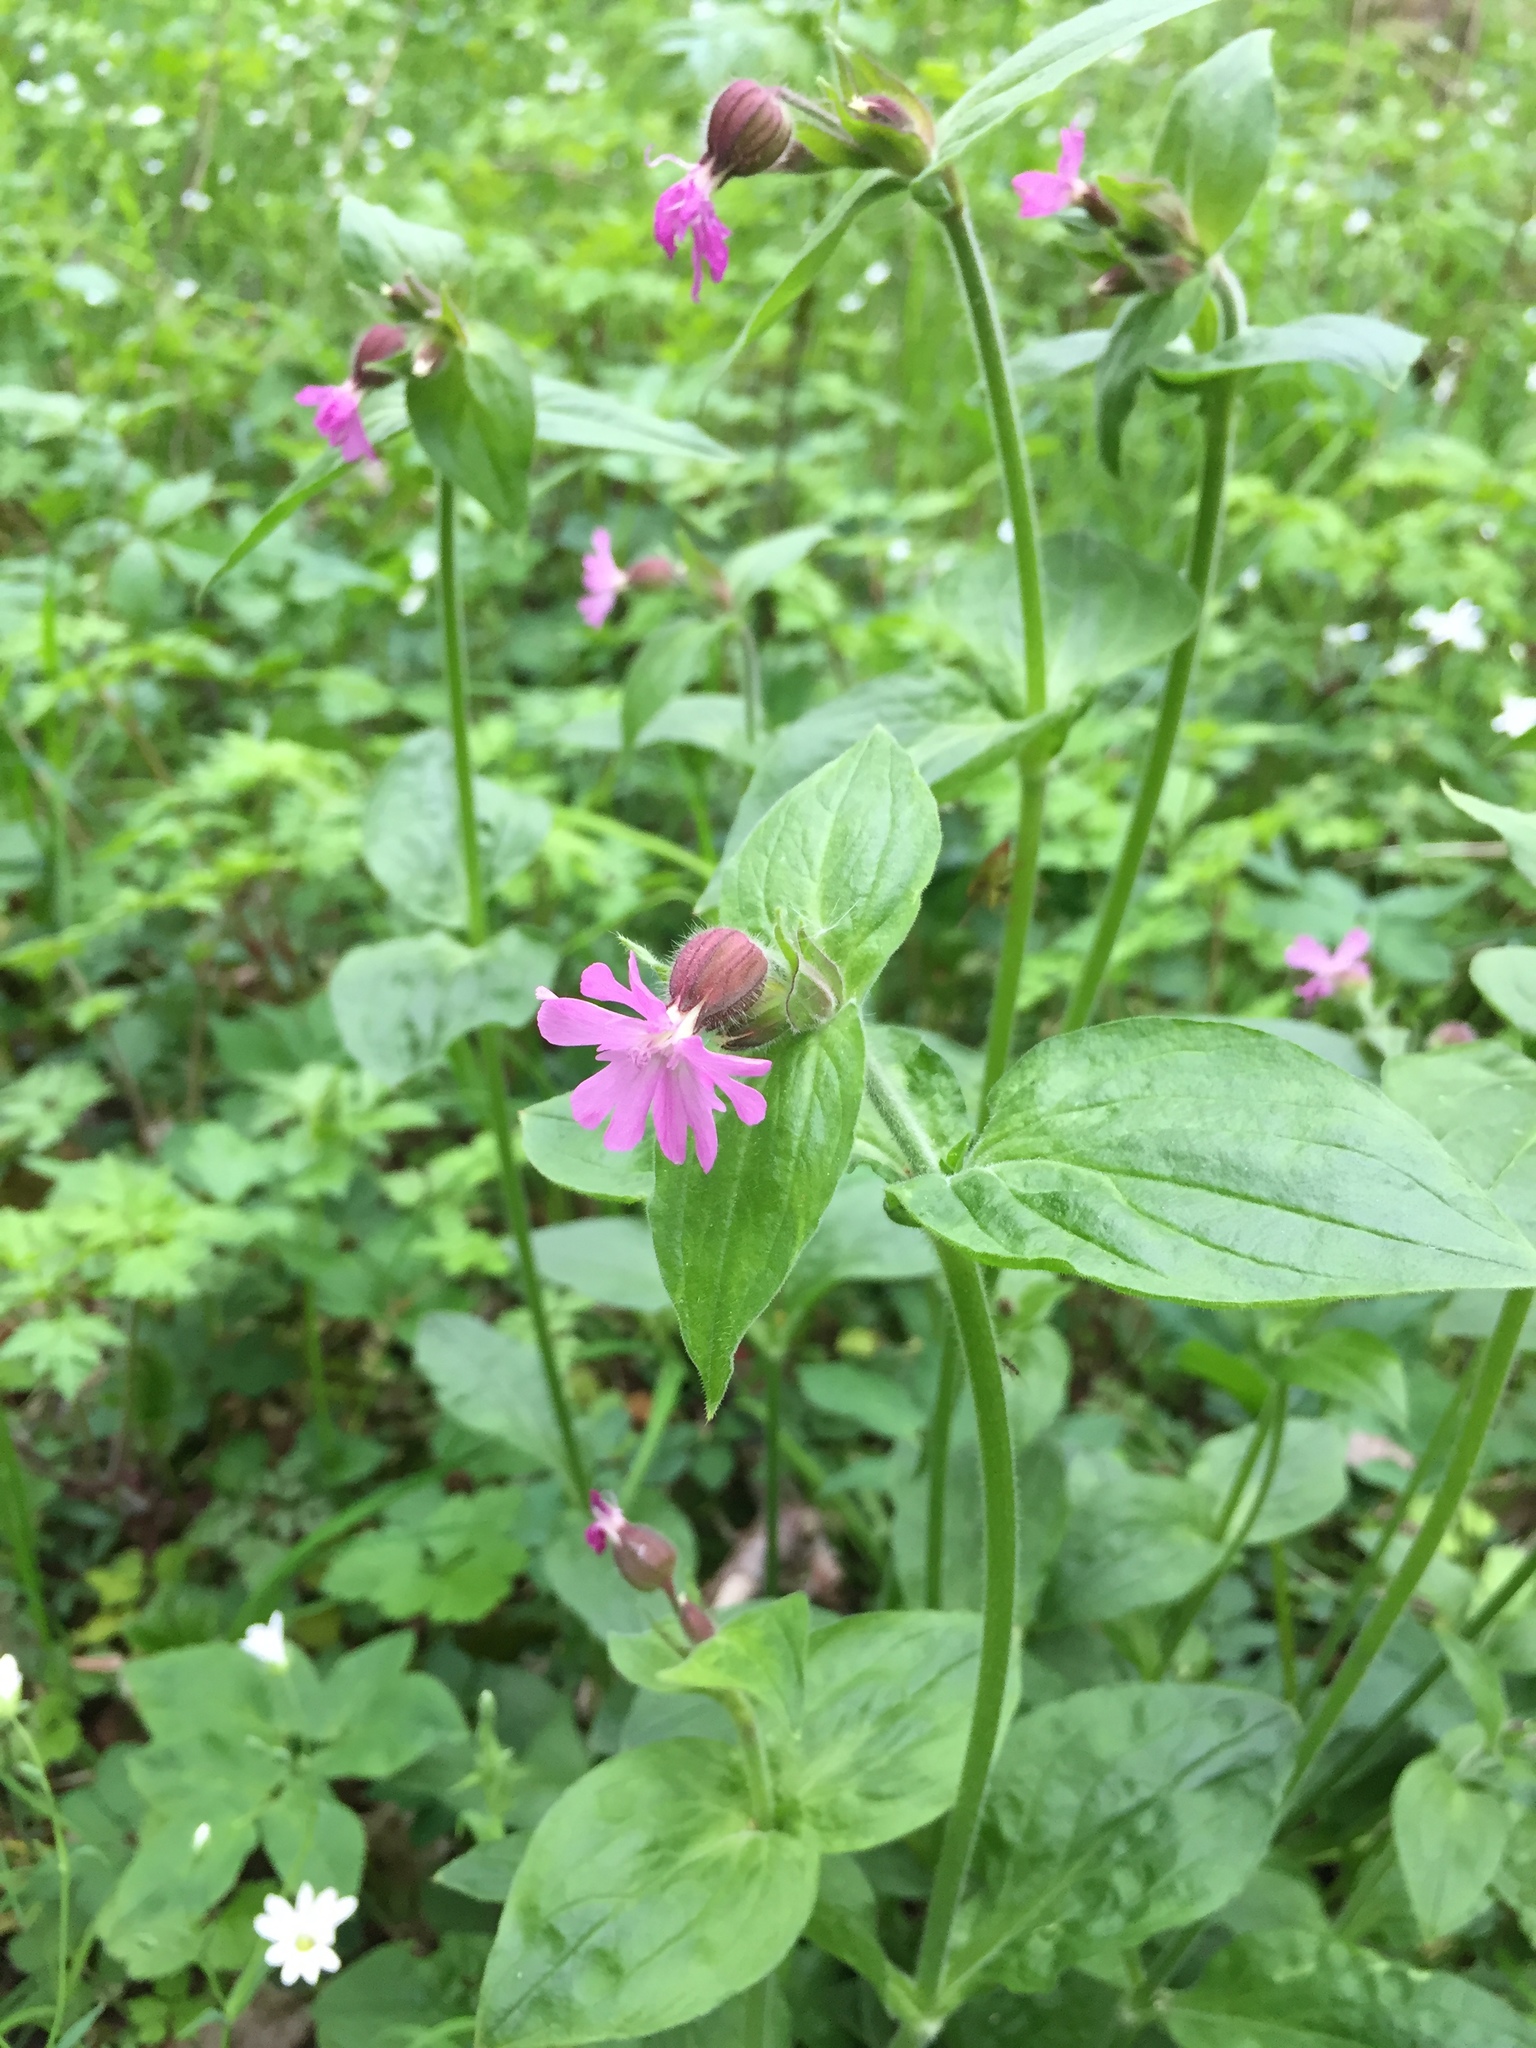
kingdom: Plantae
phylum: Tracheophyta
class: Magnoliopsida
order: Caryophyllales
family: Caryophyllaceae
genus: Silene
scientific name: Silene dioica
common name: Red campion
